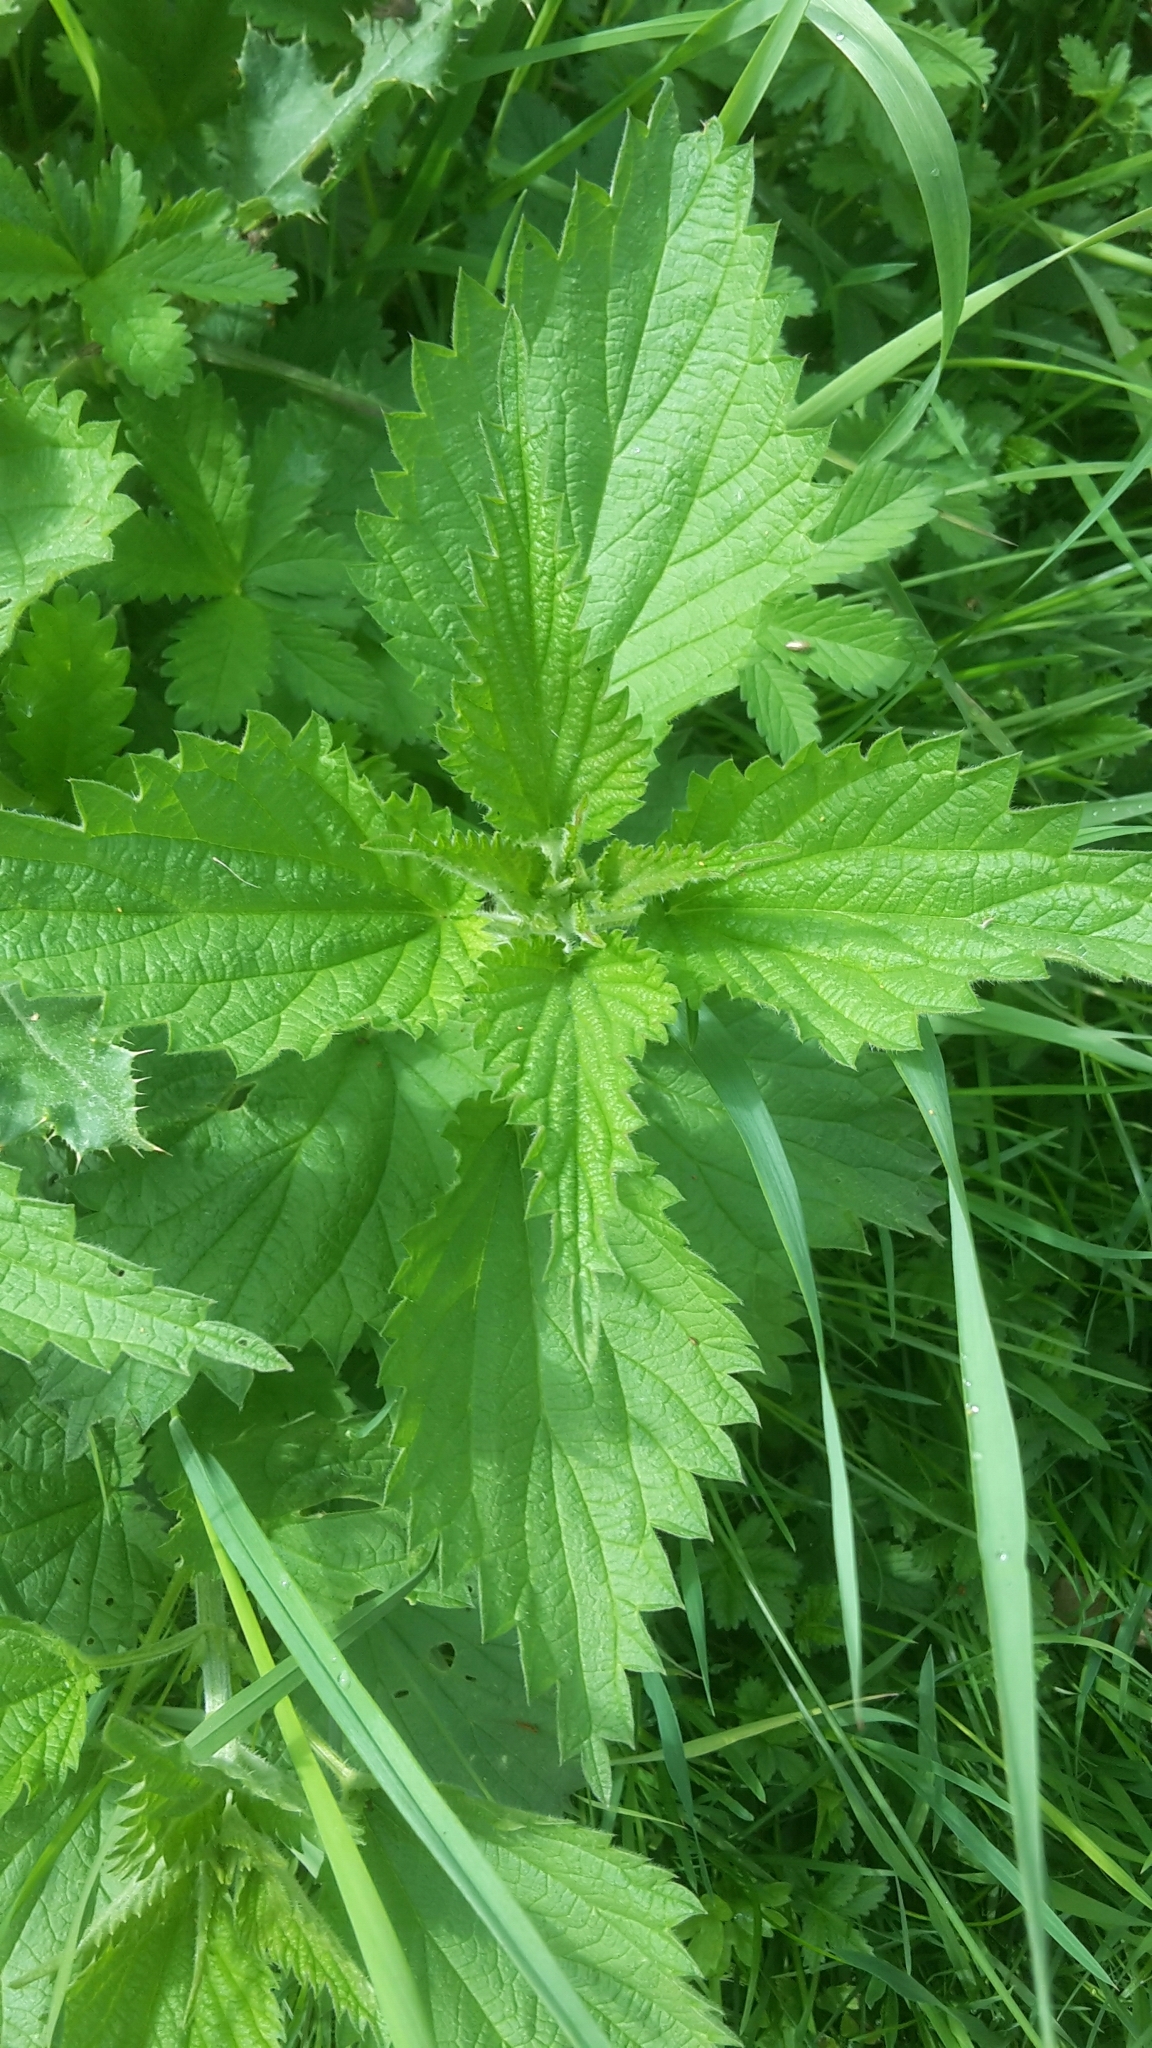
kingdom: Plantae
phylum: Tracheophyta
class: Magnoliopsida
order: Rosales
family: Urticaceae
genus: Urtica
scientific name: Urtica dioica
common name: Common nettle
